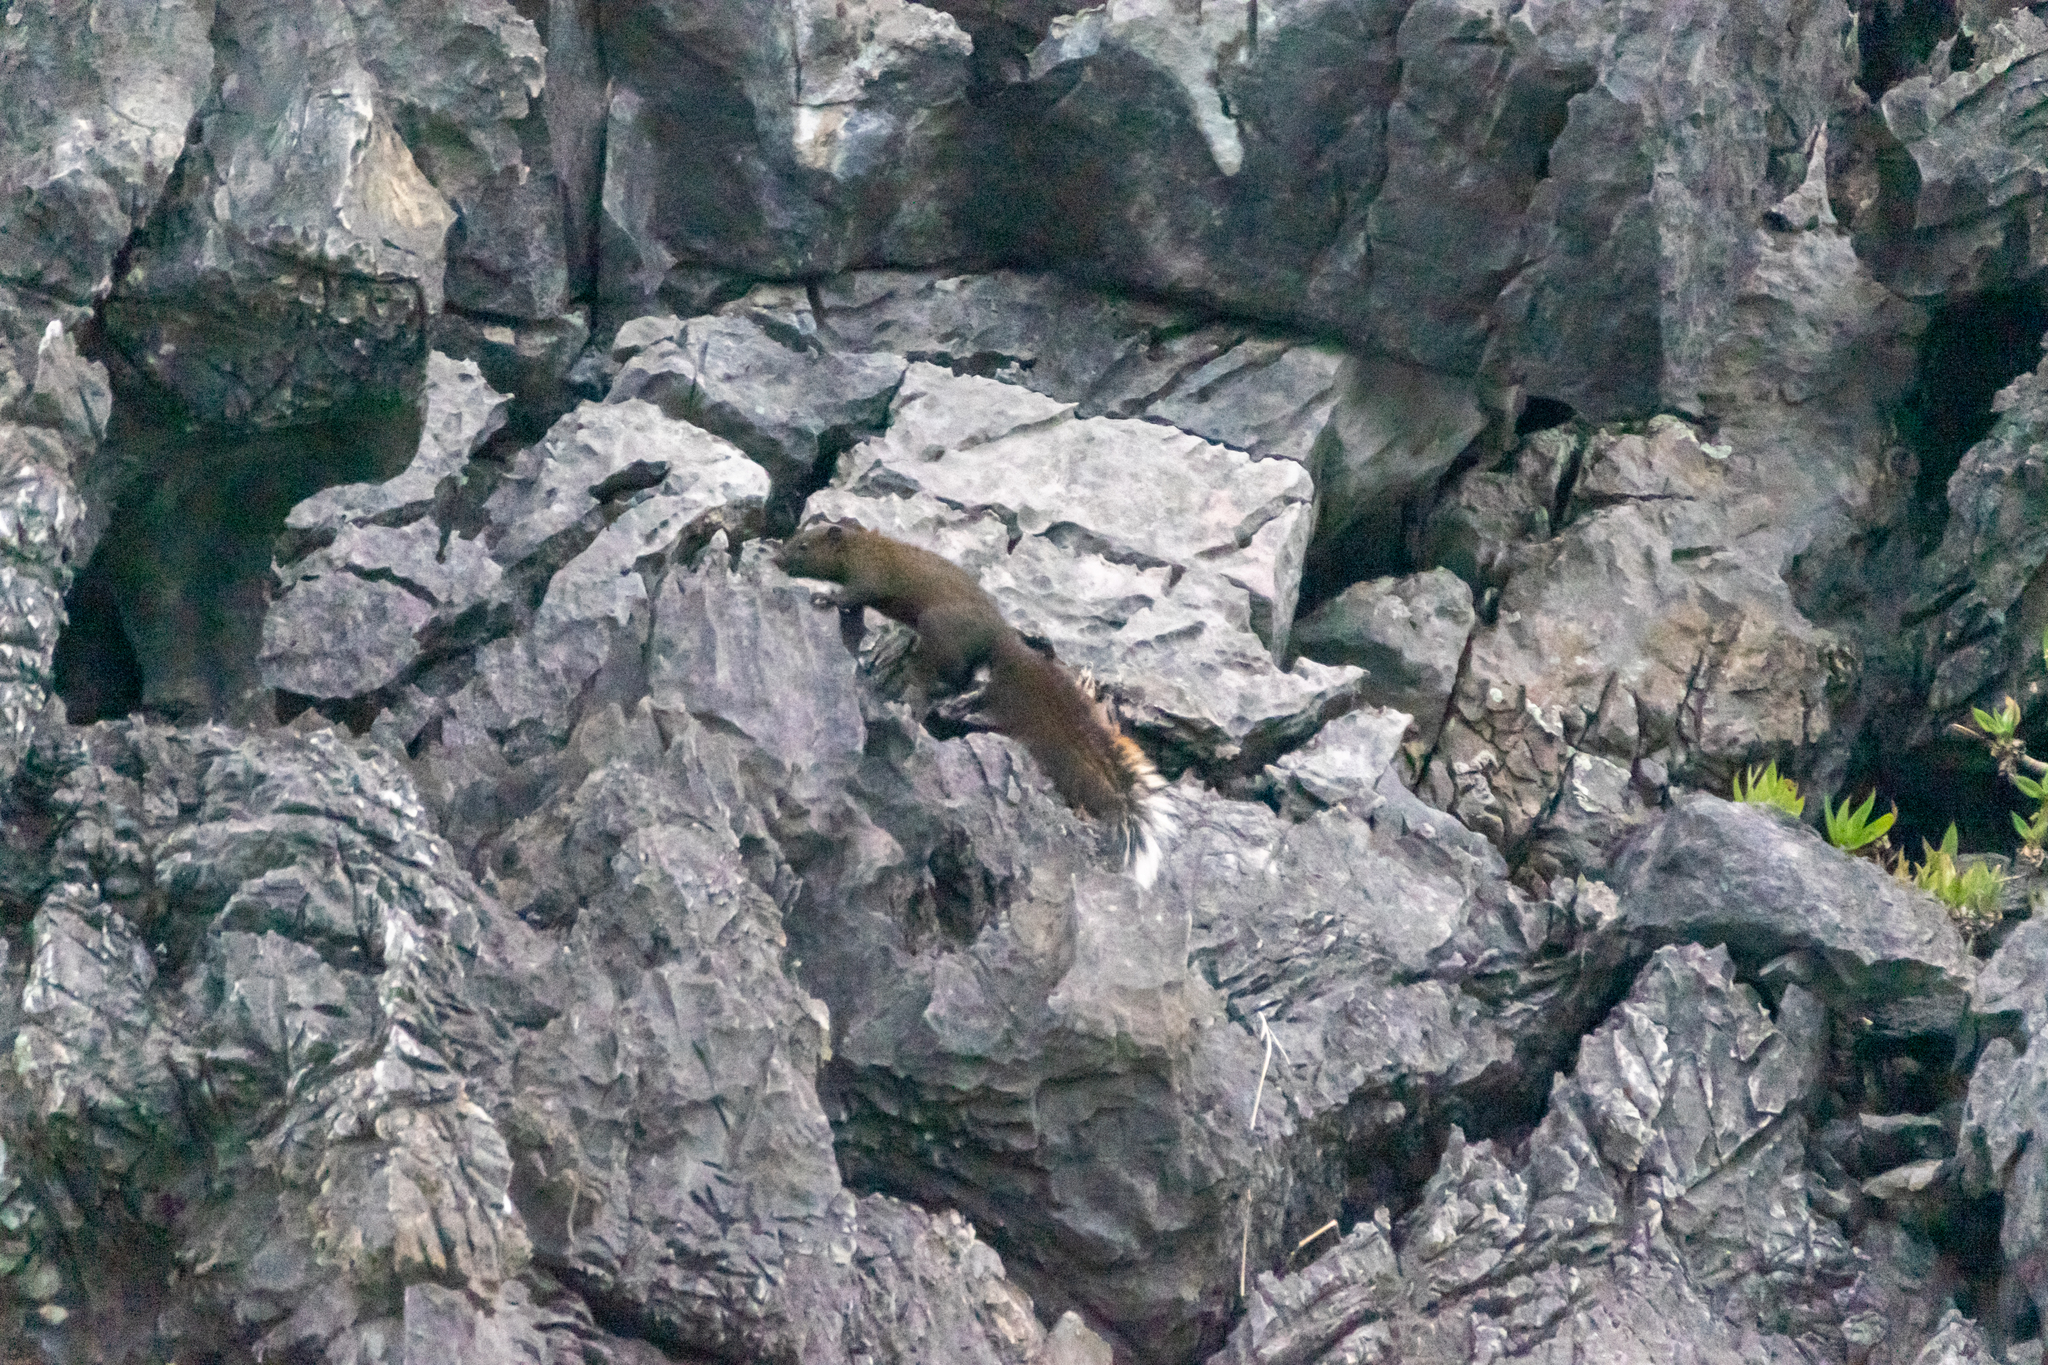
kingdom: Animalia
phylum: Chordata
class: Mammalia
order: Rodentia
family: Sciuridae
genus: Callosciurus
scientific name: Callosciurus erythraeus
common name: Pallas's squirrel
